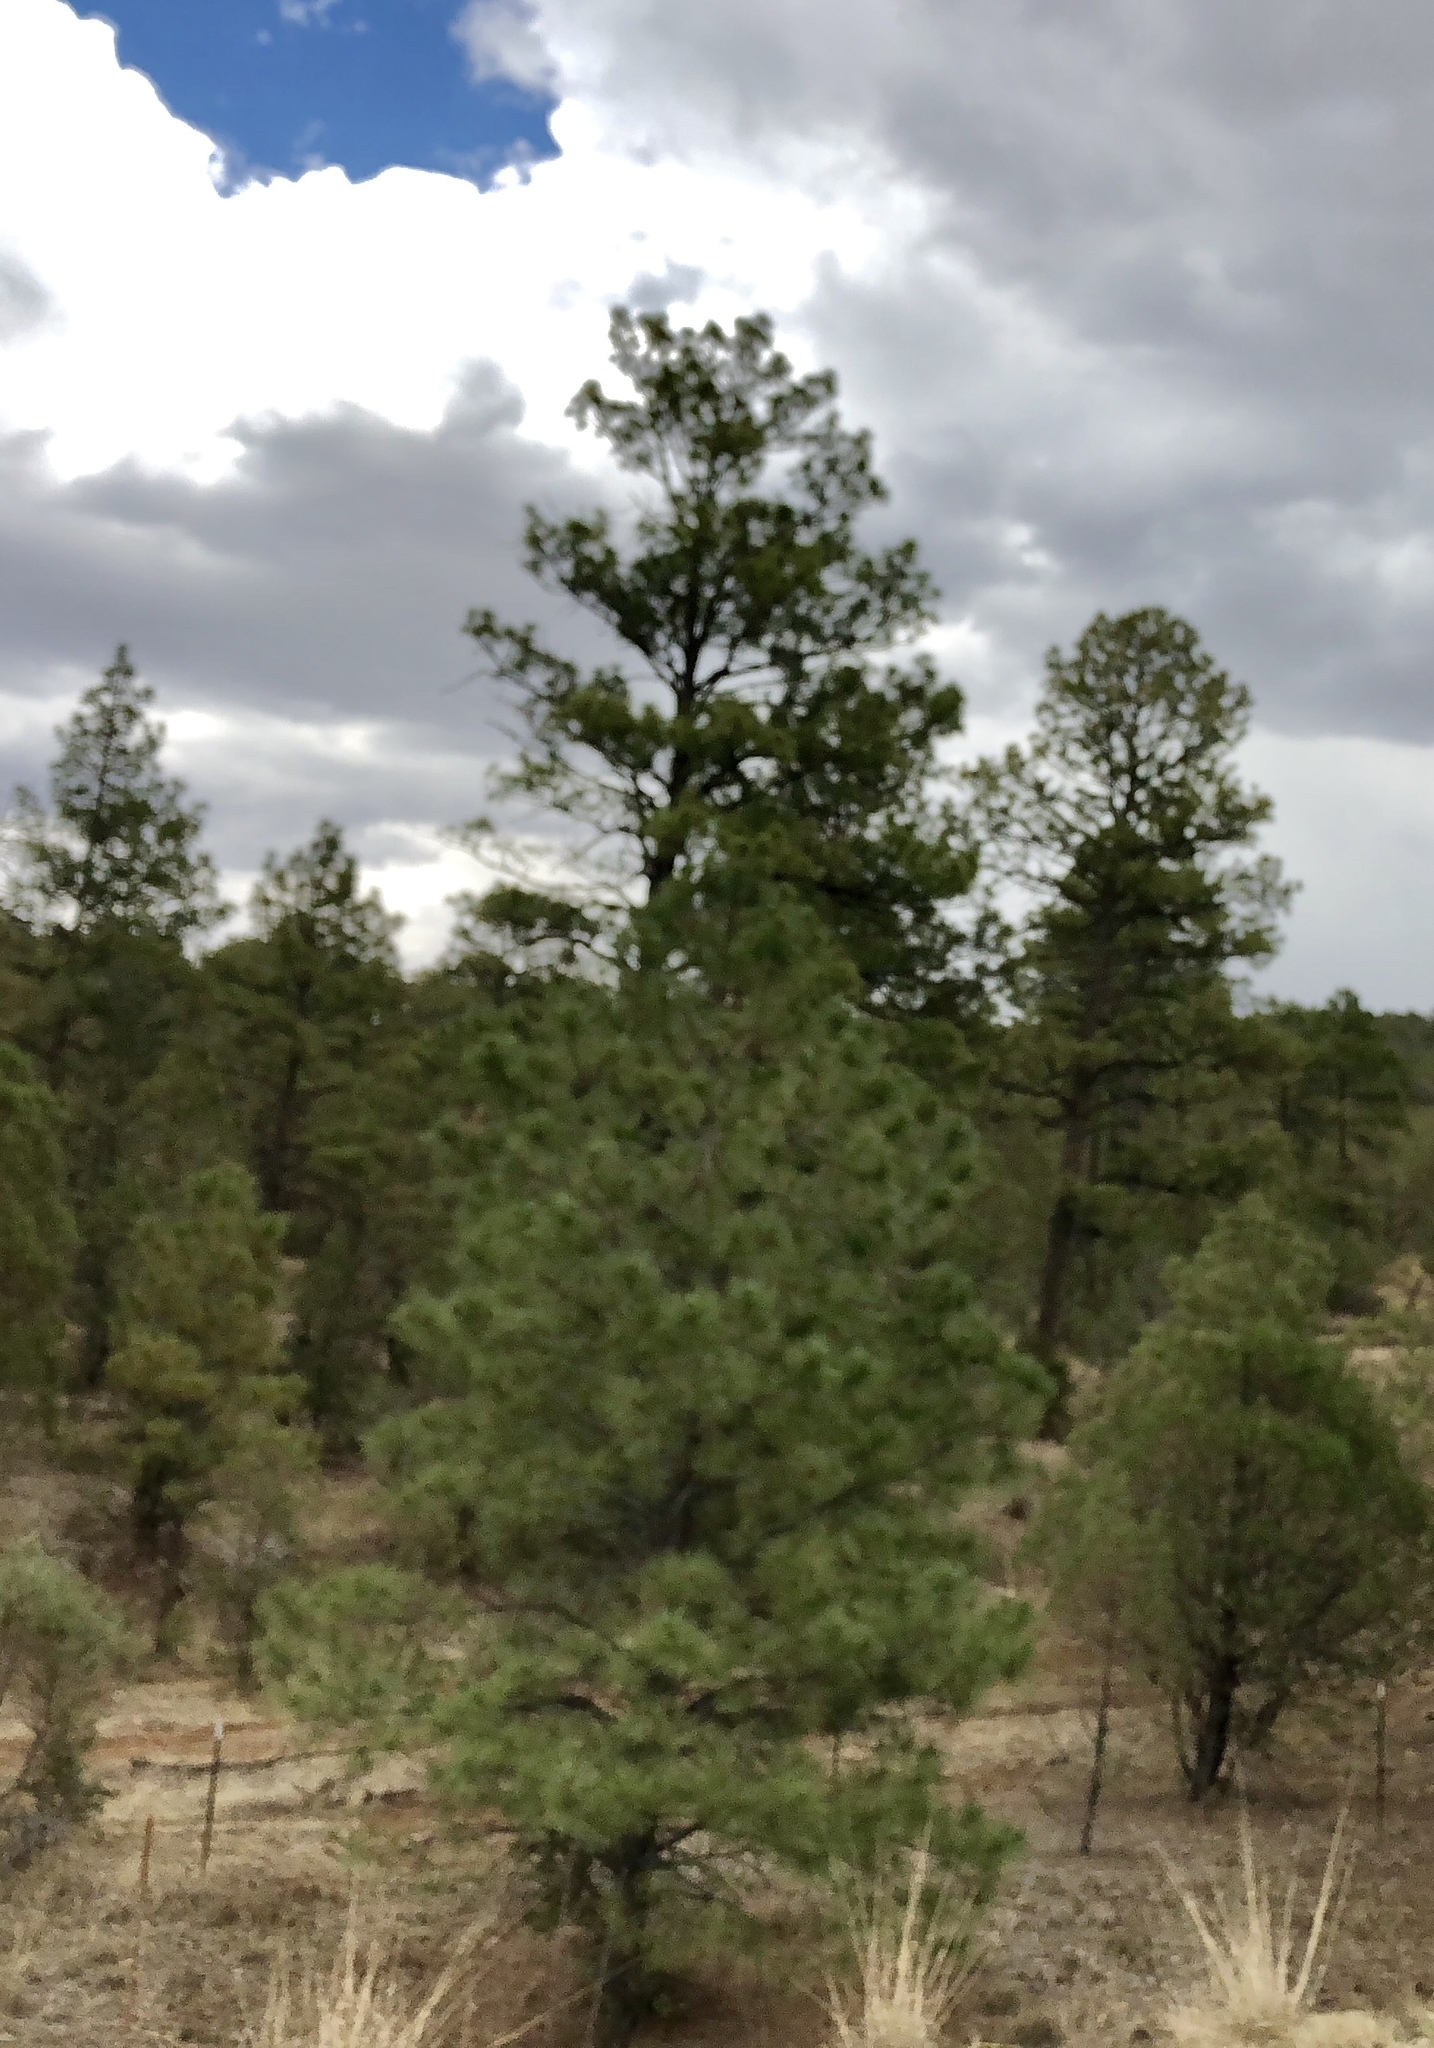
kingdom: Plantae
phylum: Tracheophyta
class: Pinopsida
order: Pinales
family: Pinaceae
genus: Pinus
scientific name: Pinus ponderosa
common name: Western yellow-pine
